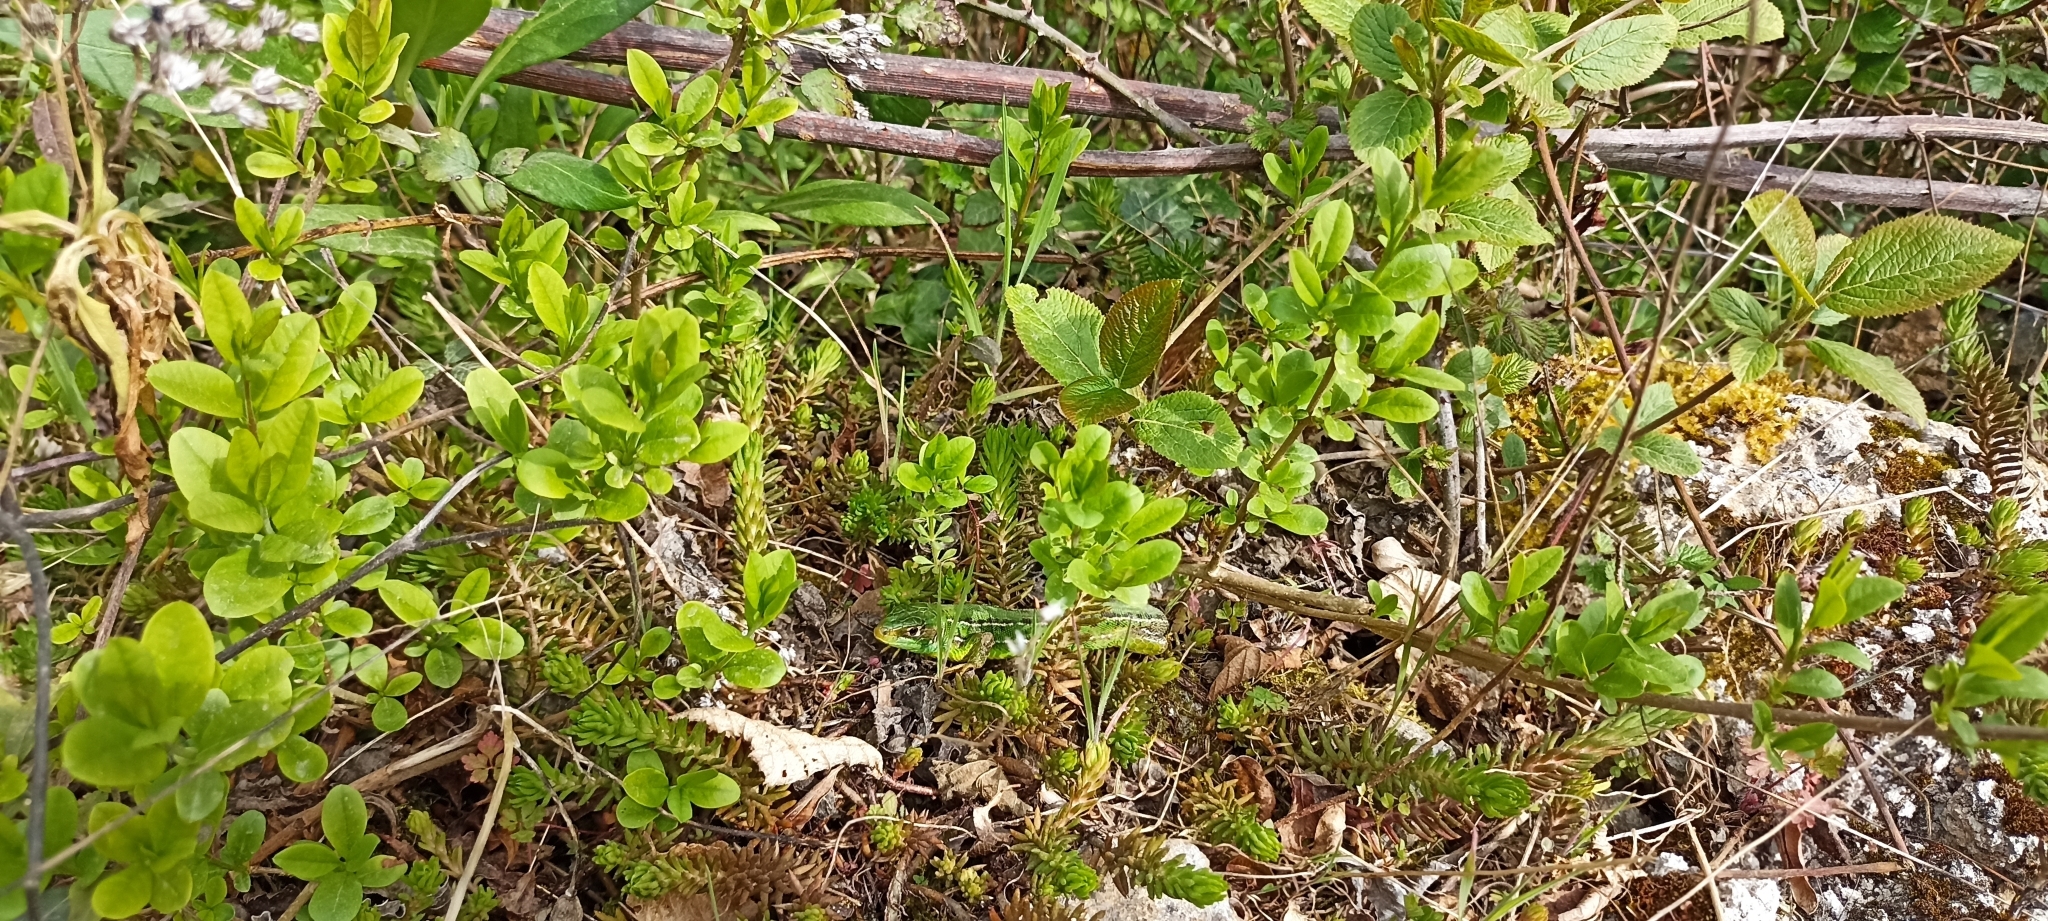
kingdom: Animalia
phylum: Chordata
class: Squamata
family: Lacertidae
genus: Lacerta
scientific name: Lacerta bilineata
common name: Western green lizard
